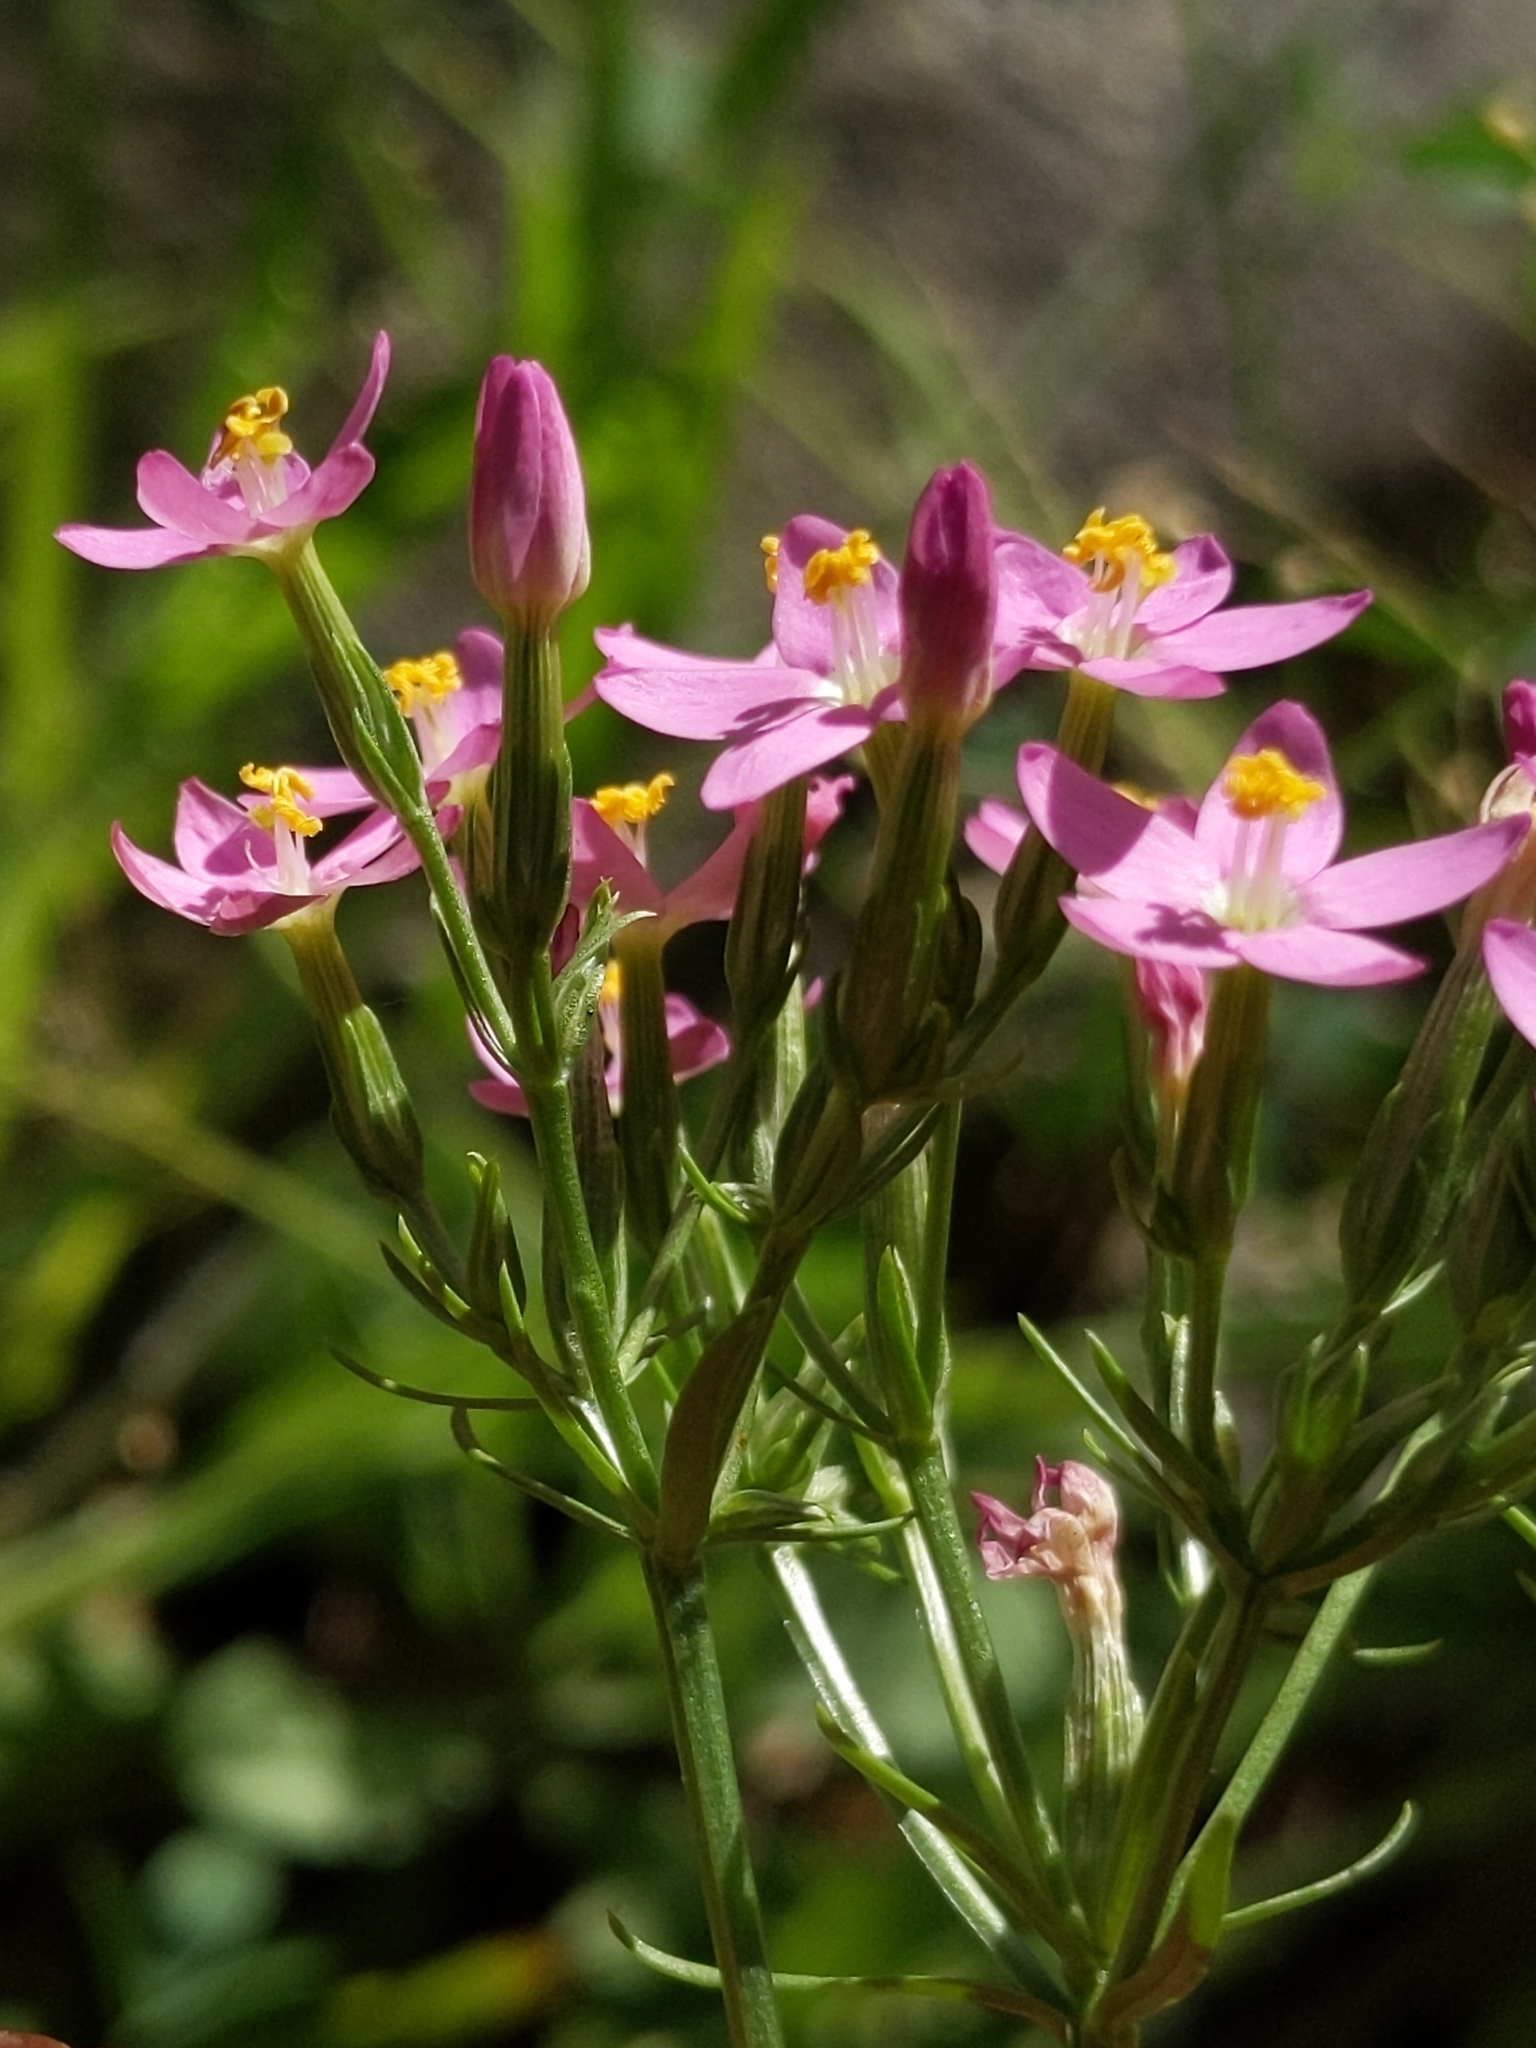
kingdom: Plantae
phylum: Tracheophyta
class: Magnoliopsida
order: Gentianales
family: Gentianaceae
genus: Zeltnera
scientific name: Zeltnera davyi
